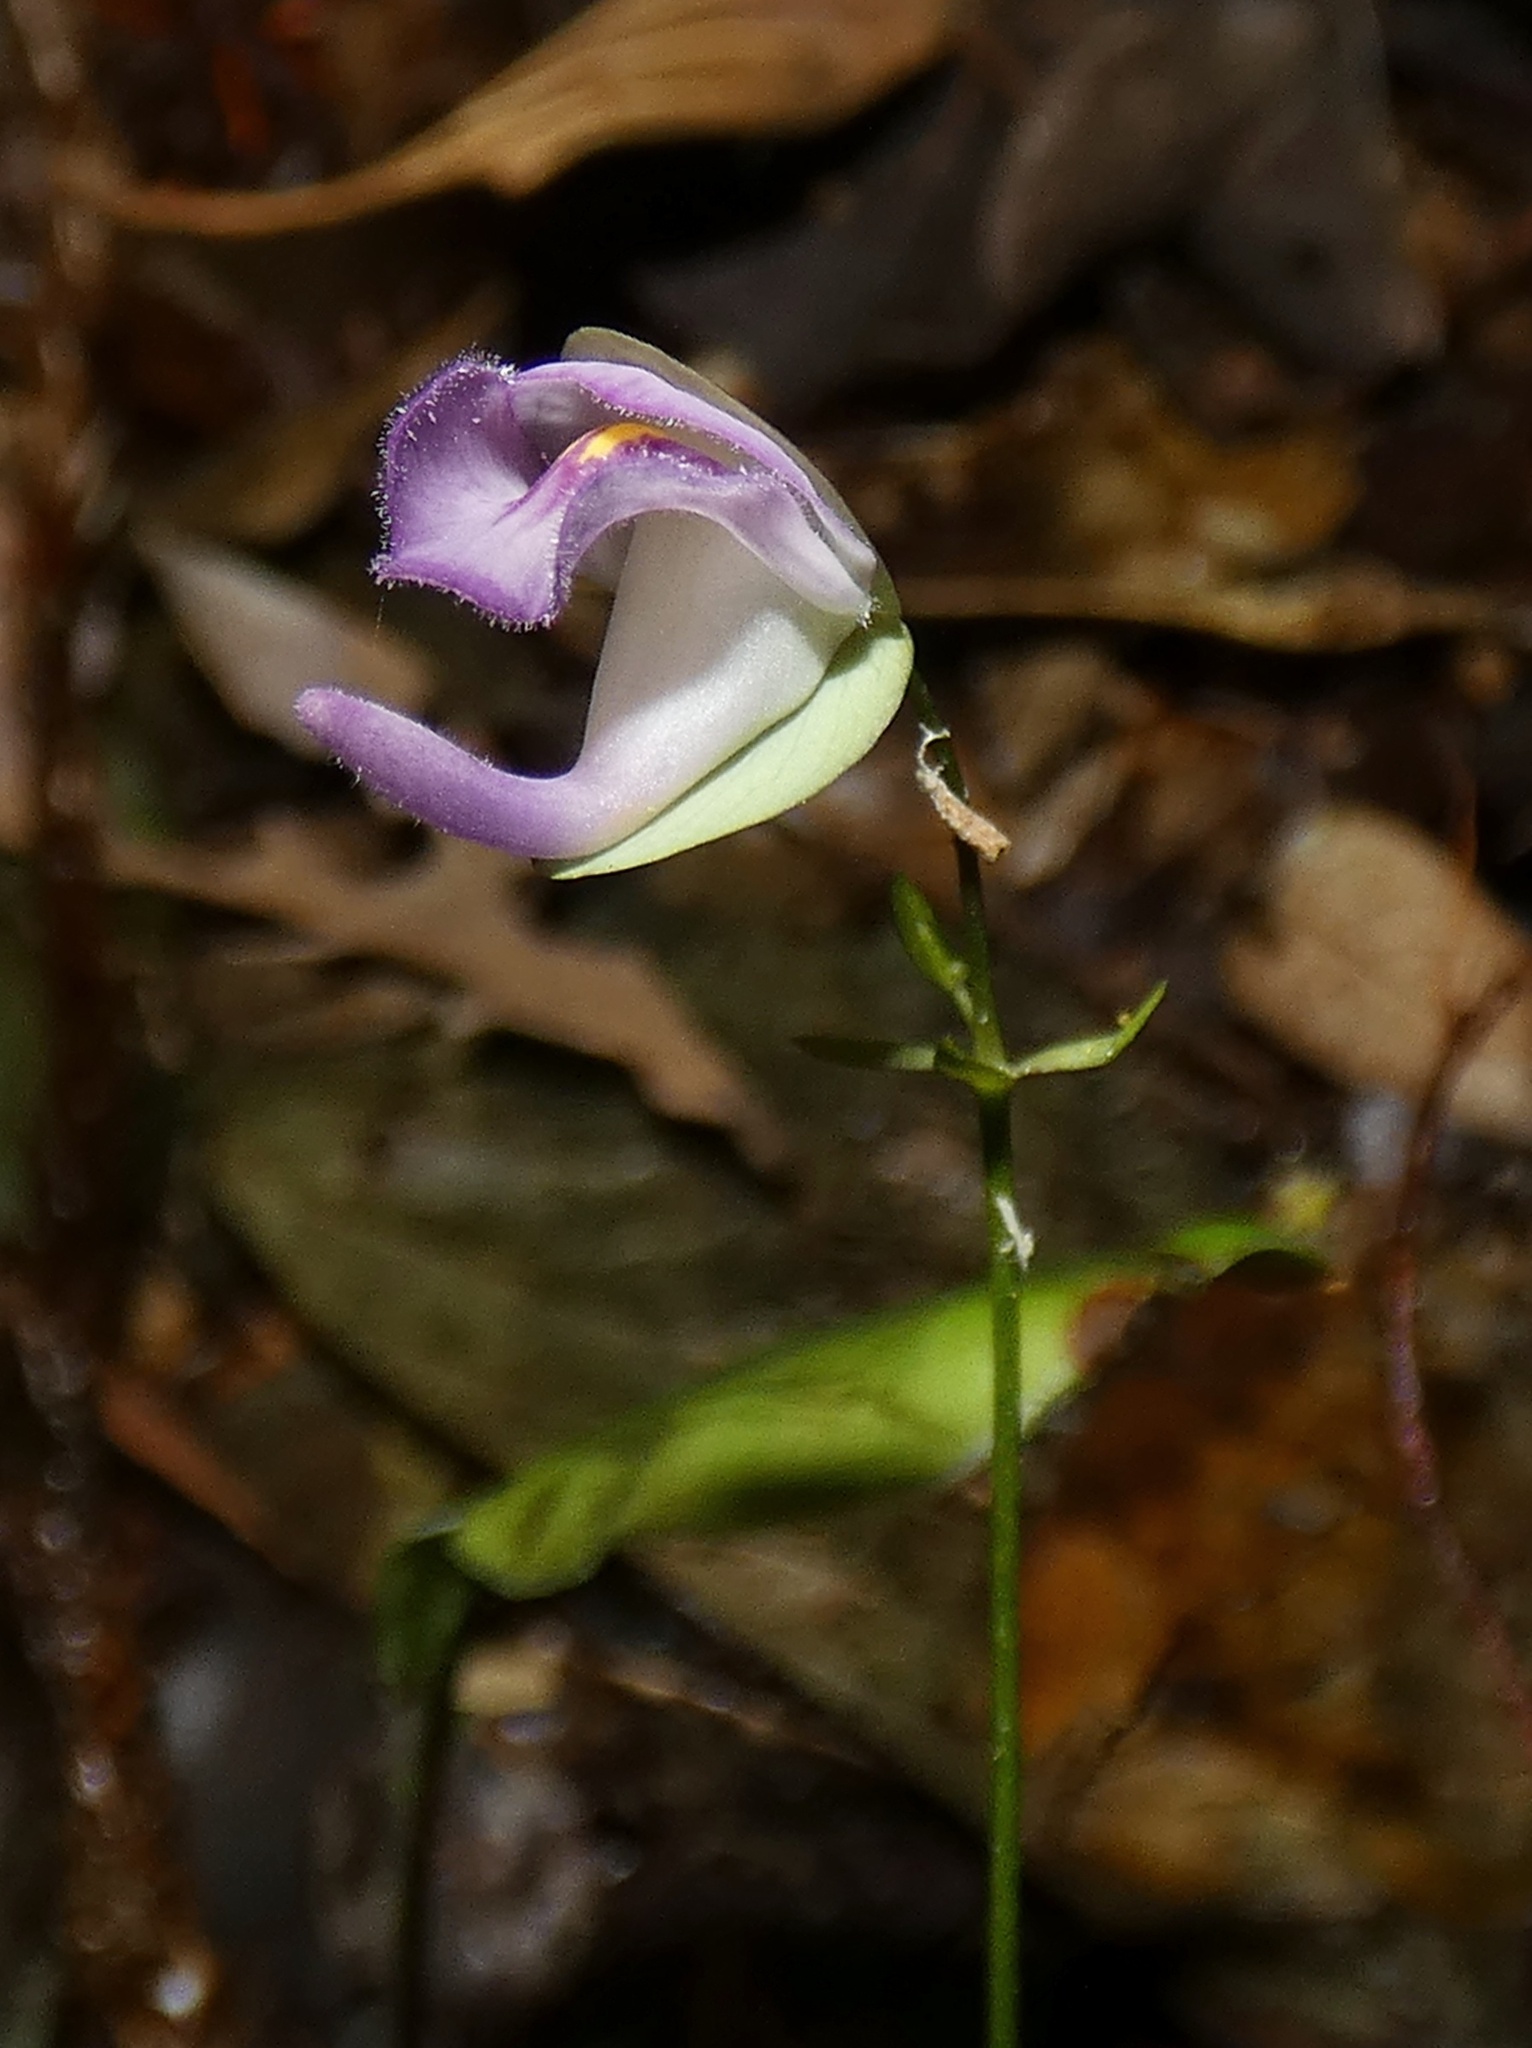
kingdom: Plantae
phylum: Tracheophyta
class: Magnoliopsida
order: Lamiales
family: Lentibulariaceae
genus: Utricularia
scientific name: Utricularia jamesoniana
